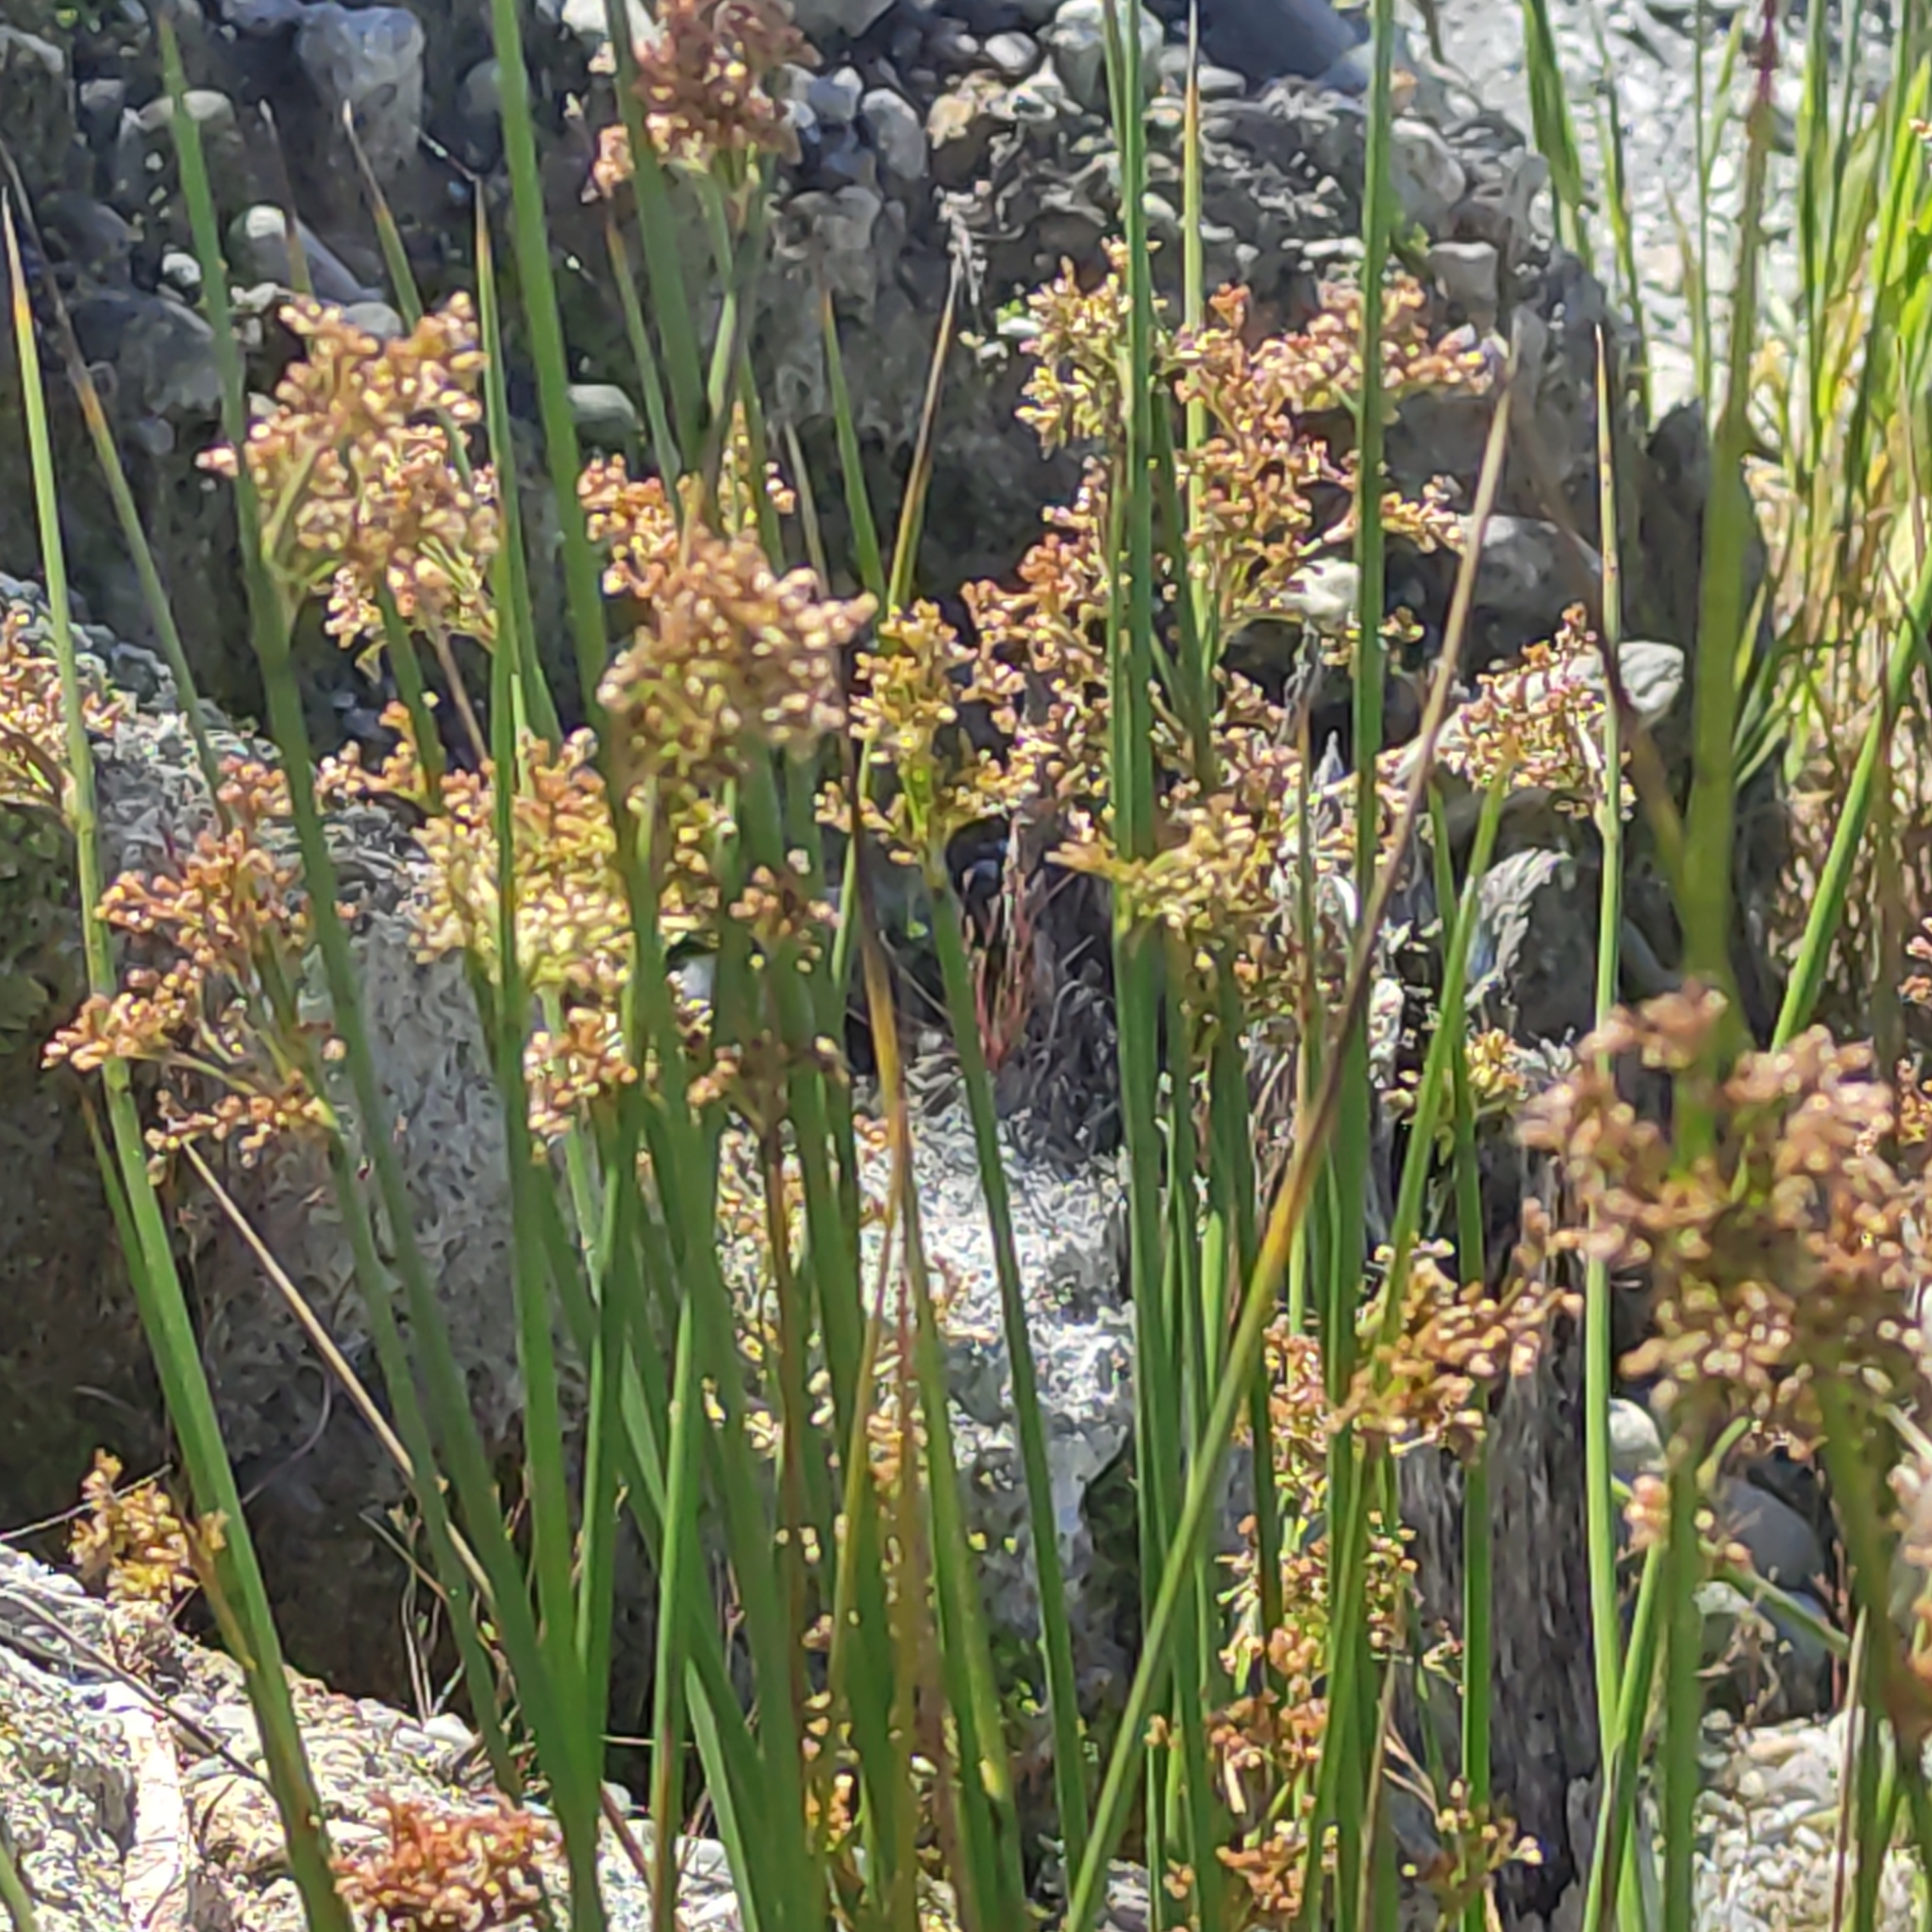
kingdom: Plantae
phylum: Tracheophyta
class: Liliopsida
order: Poales
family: Juncaceae
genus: Juncus
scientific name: Juncus effusus
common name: Soft rush
